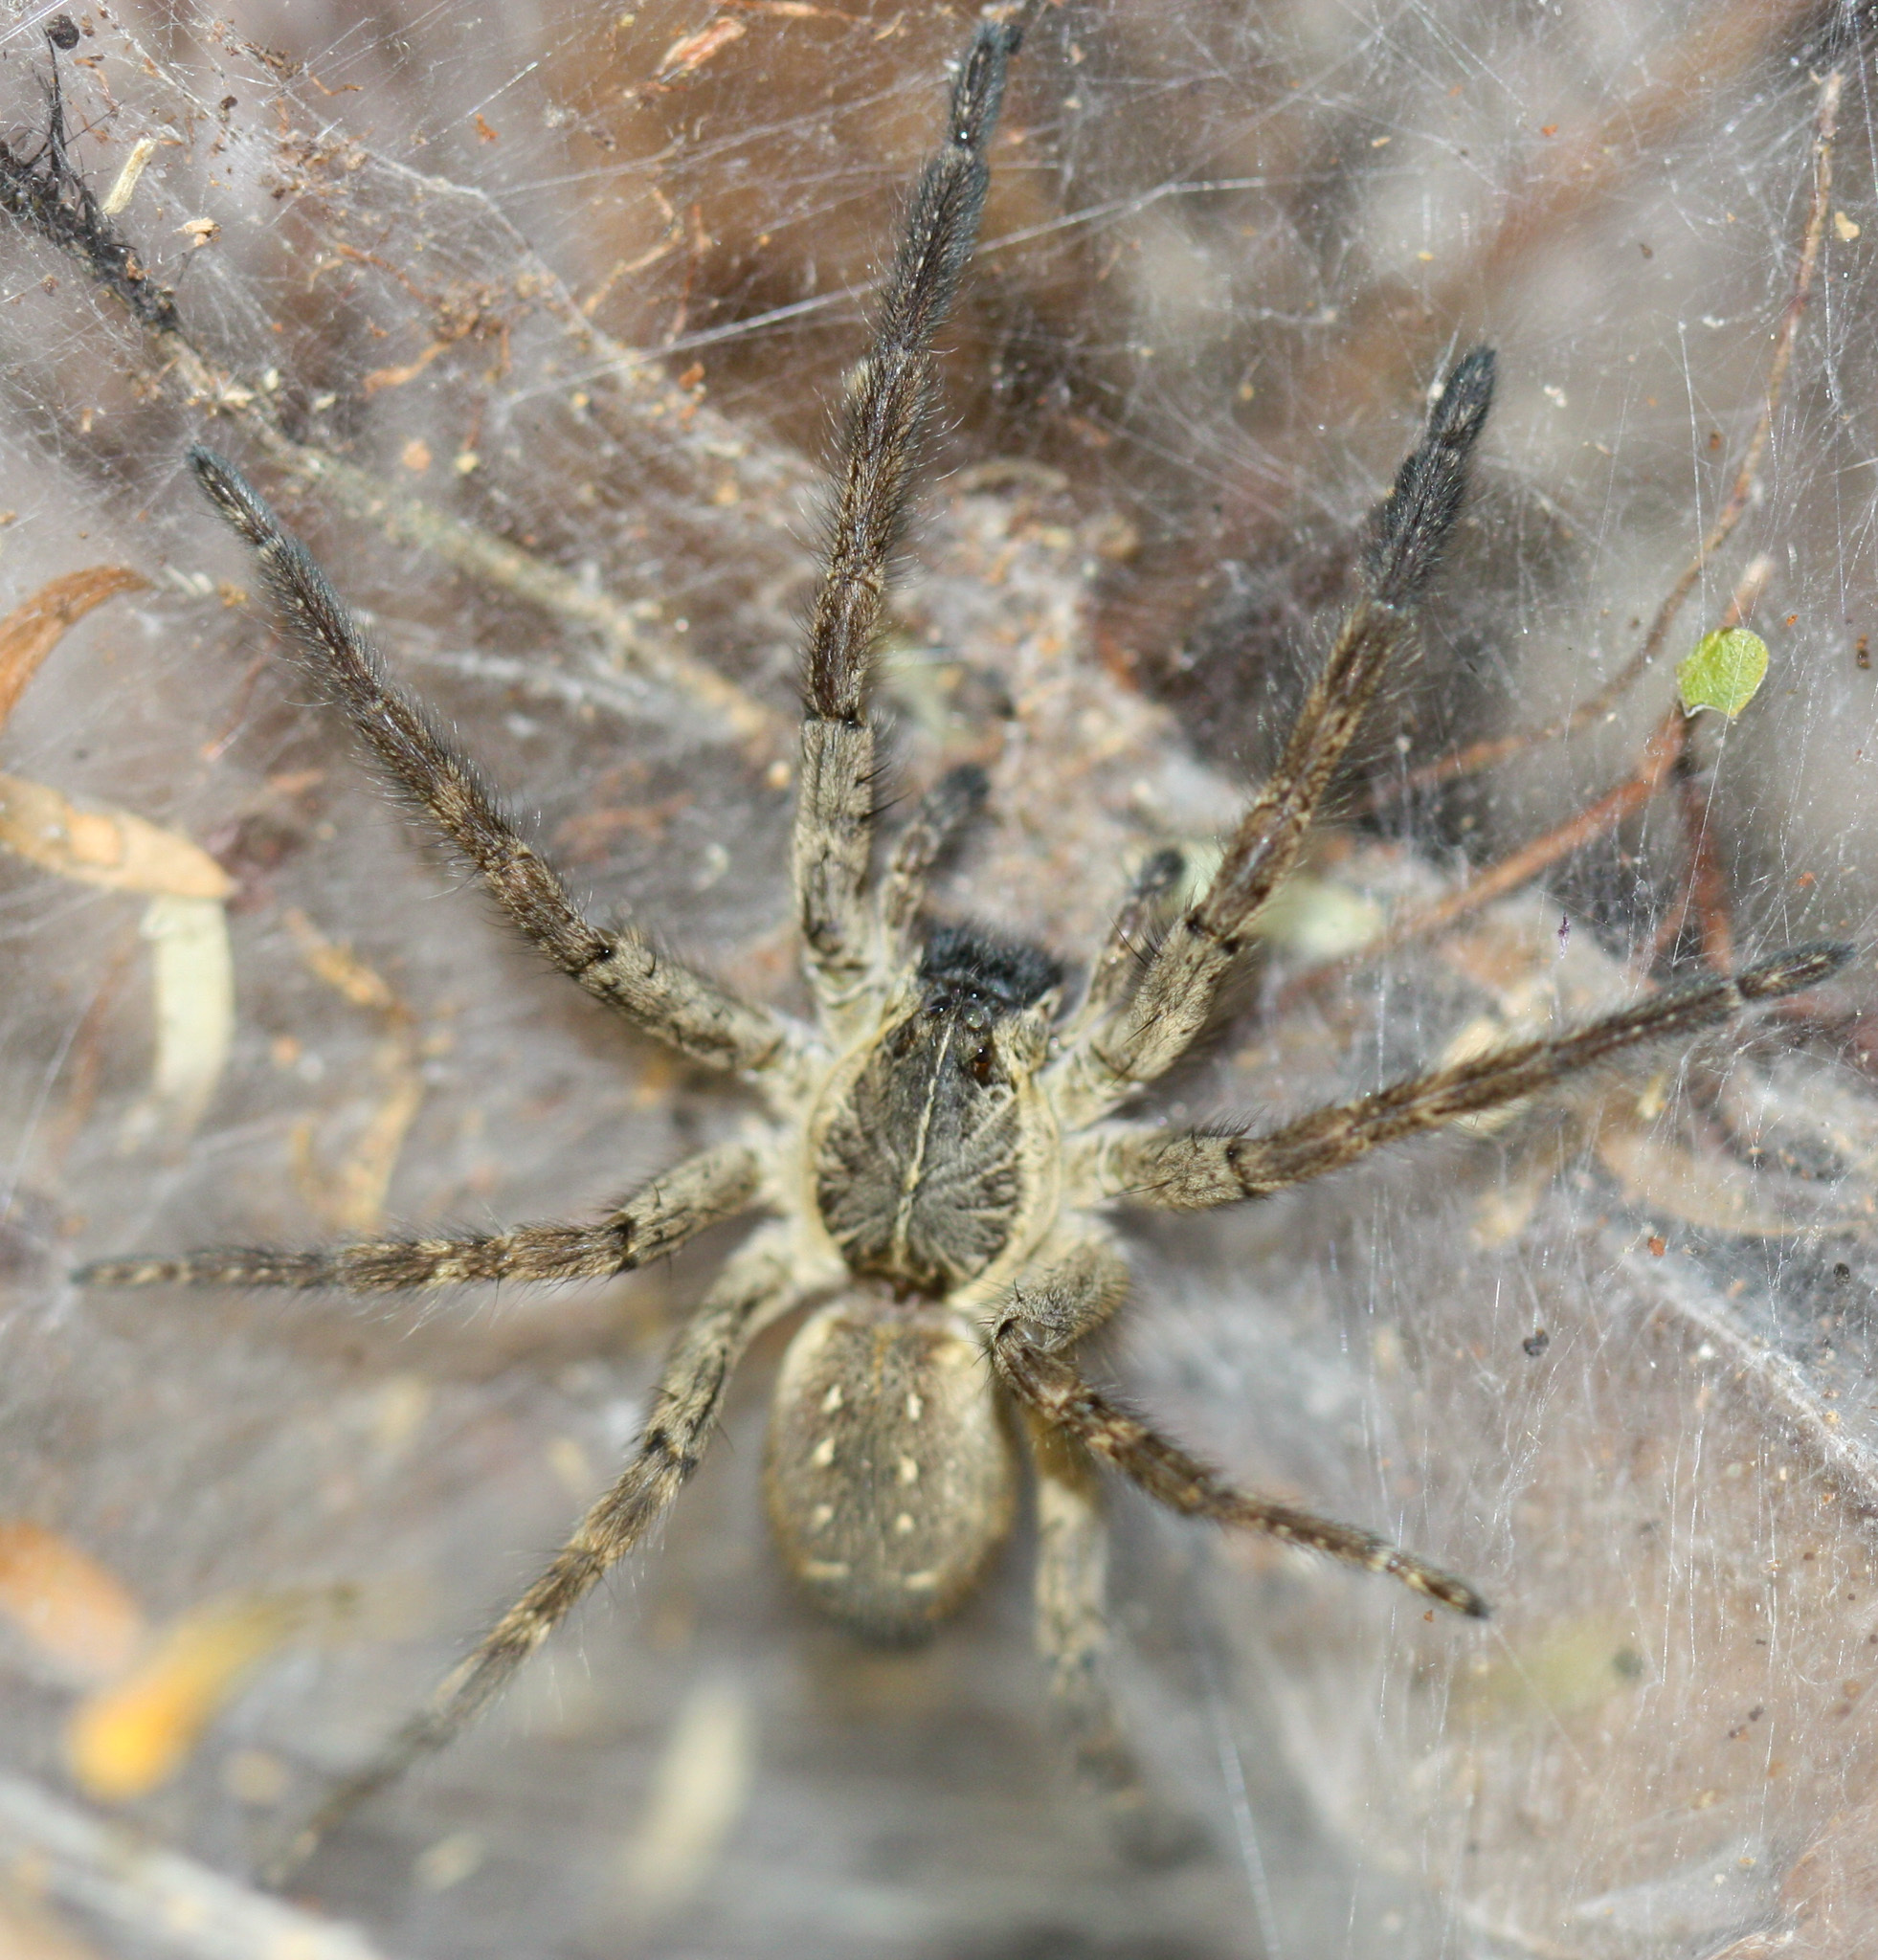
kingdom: Animalia
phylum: Arthropoda
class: Arachnida
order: Araneae
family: Lycosidae
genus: Sosippus
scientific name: Sosippus agalenoides
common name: Wolf spiders
